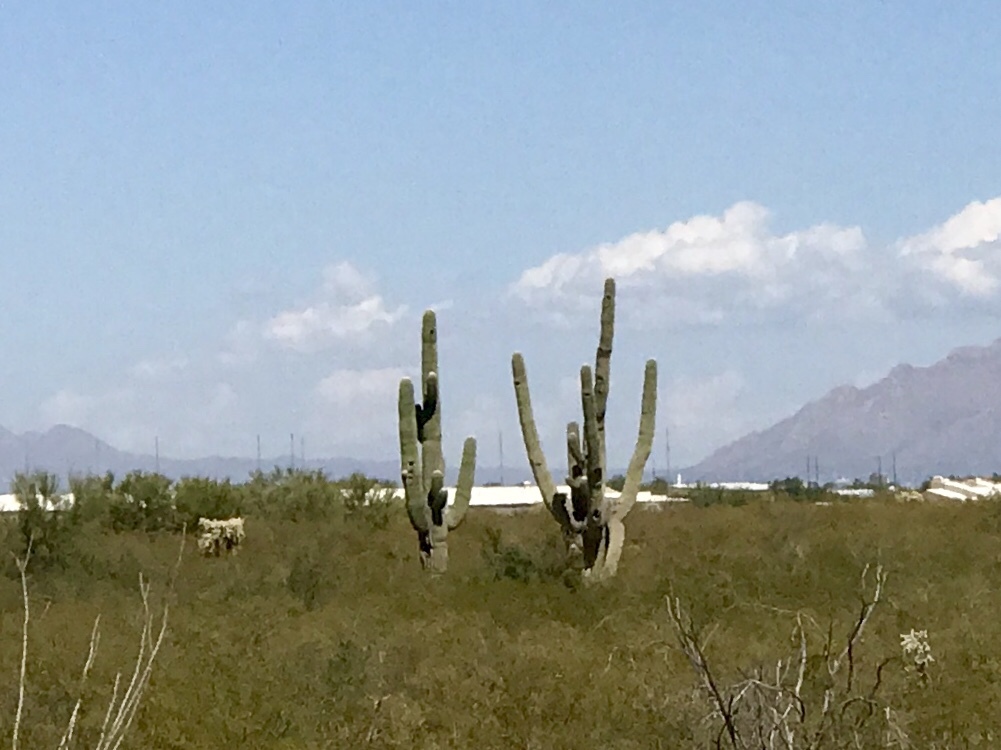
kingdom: Plantae
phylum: Tracheophyta
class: Magnoliopsida
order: Caryophyllales
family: Cactaceae
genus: Carnegiea
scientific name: Carnegiea gigantea
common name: Saguaro
